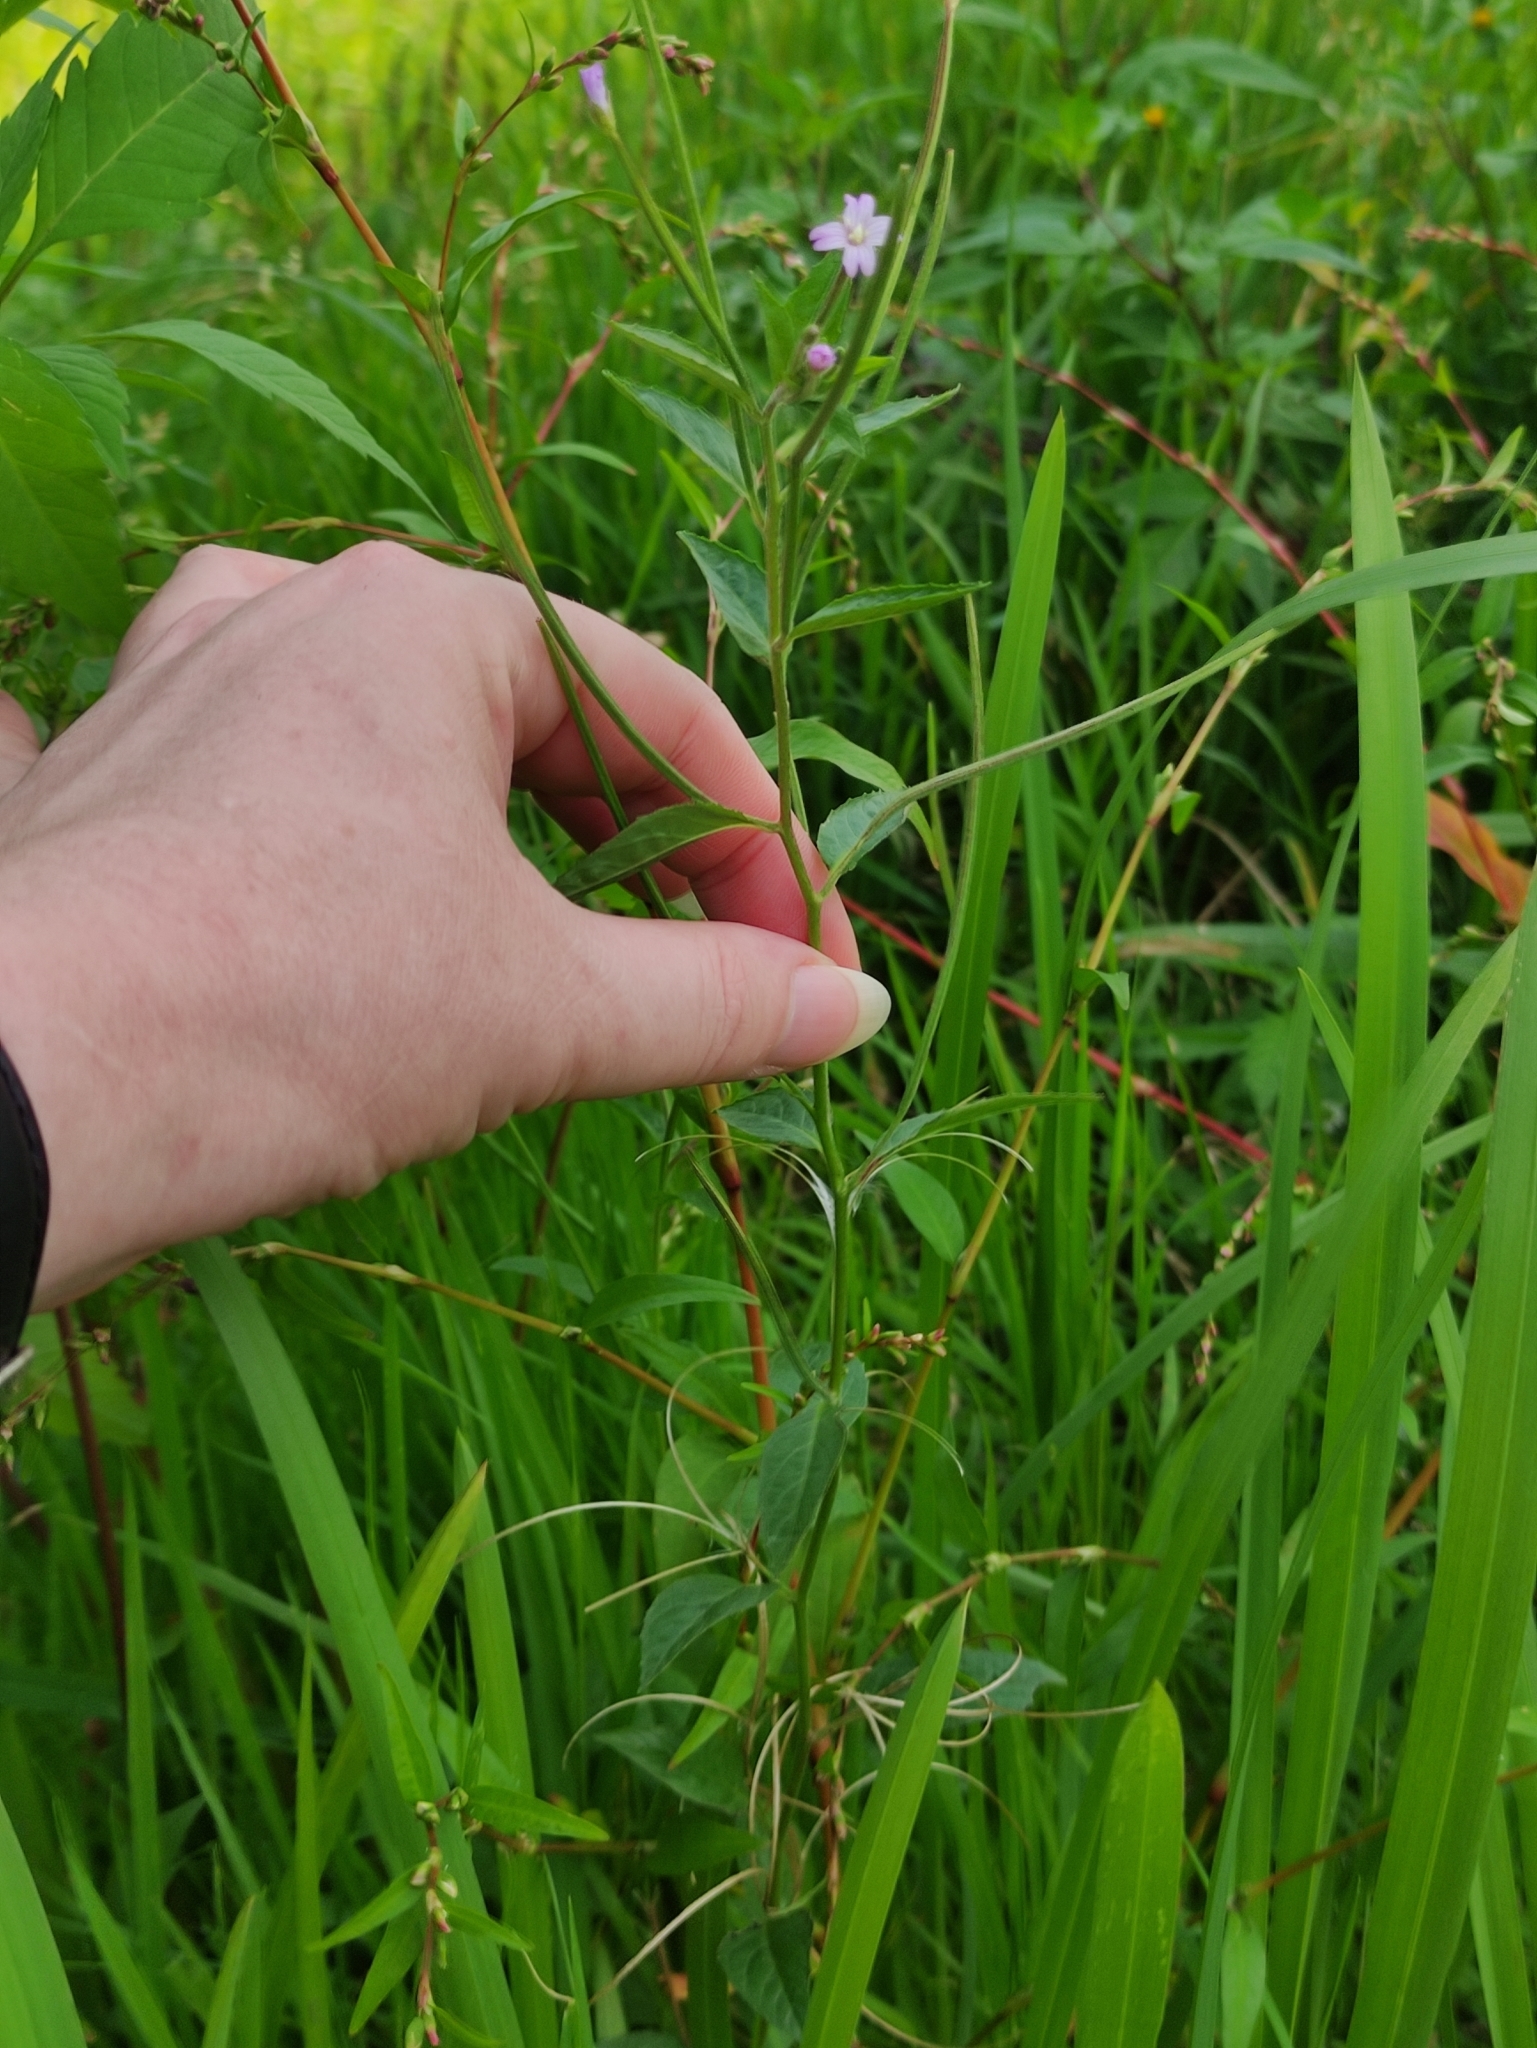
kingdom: Plantae
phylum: Tracheophyta
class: Magnoliopsida
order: Myrtales
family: Onagraceae
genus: Epilobium
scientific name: Epilobium ciliatum
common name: American willowherb
